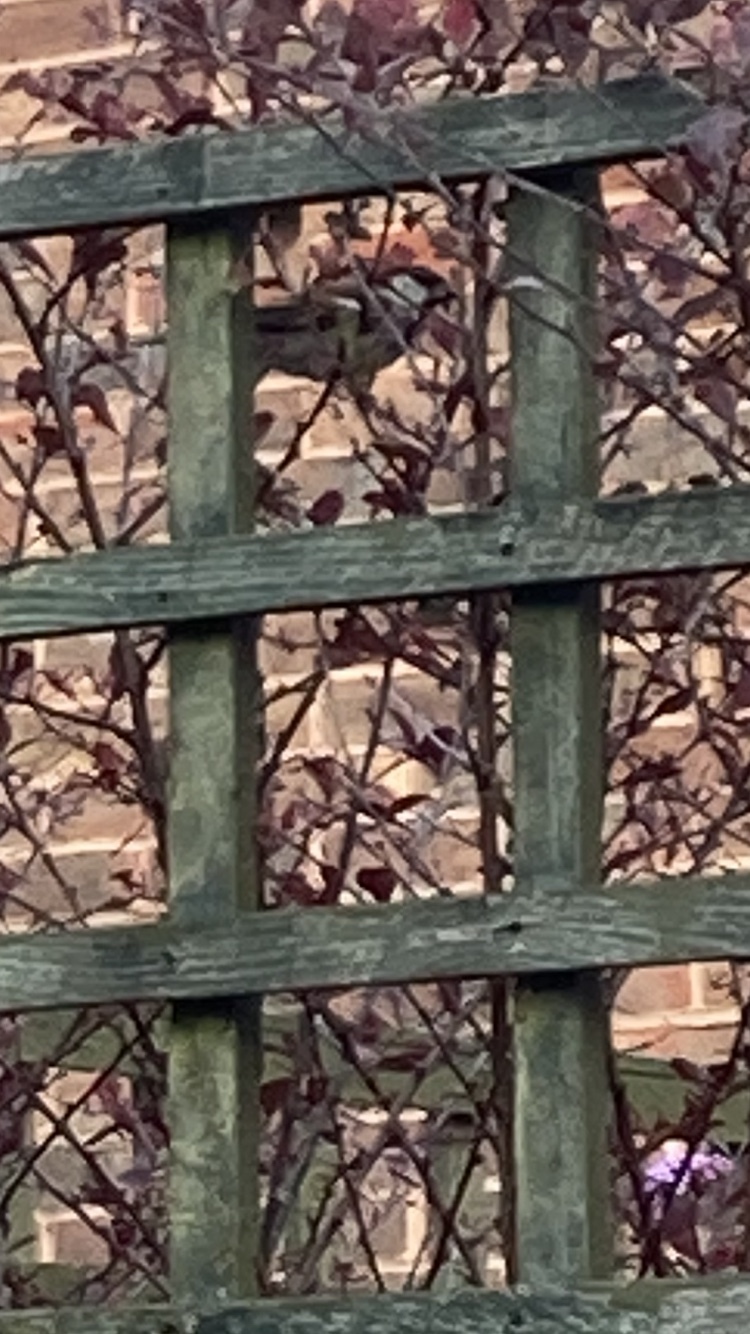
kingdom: Animalia
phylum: Chordata
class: Aves
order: Passeriformes
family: Passeridae
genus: Passer
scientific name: Passer domesticus
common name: House sparrow
